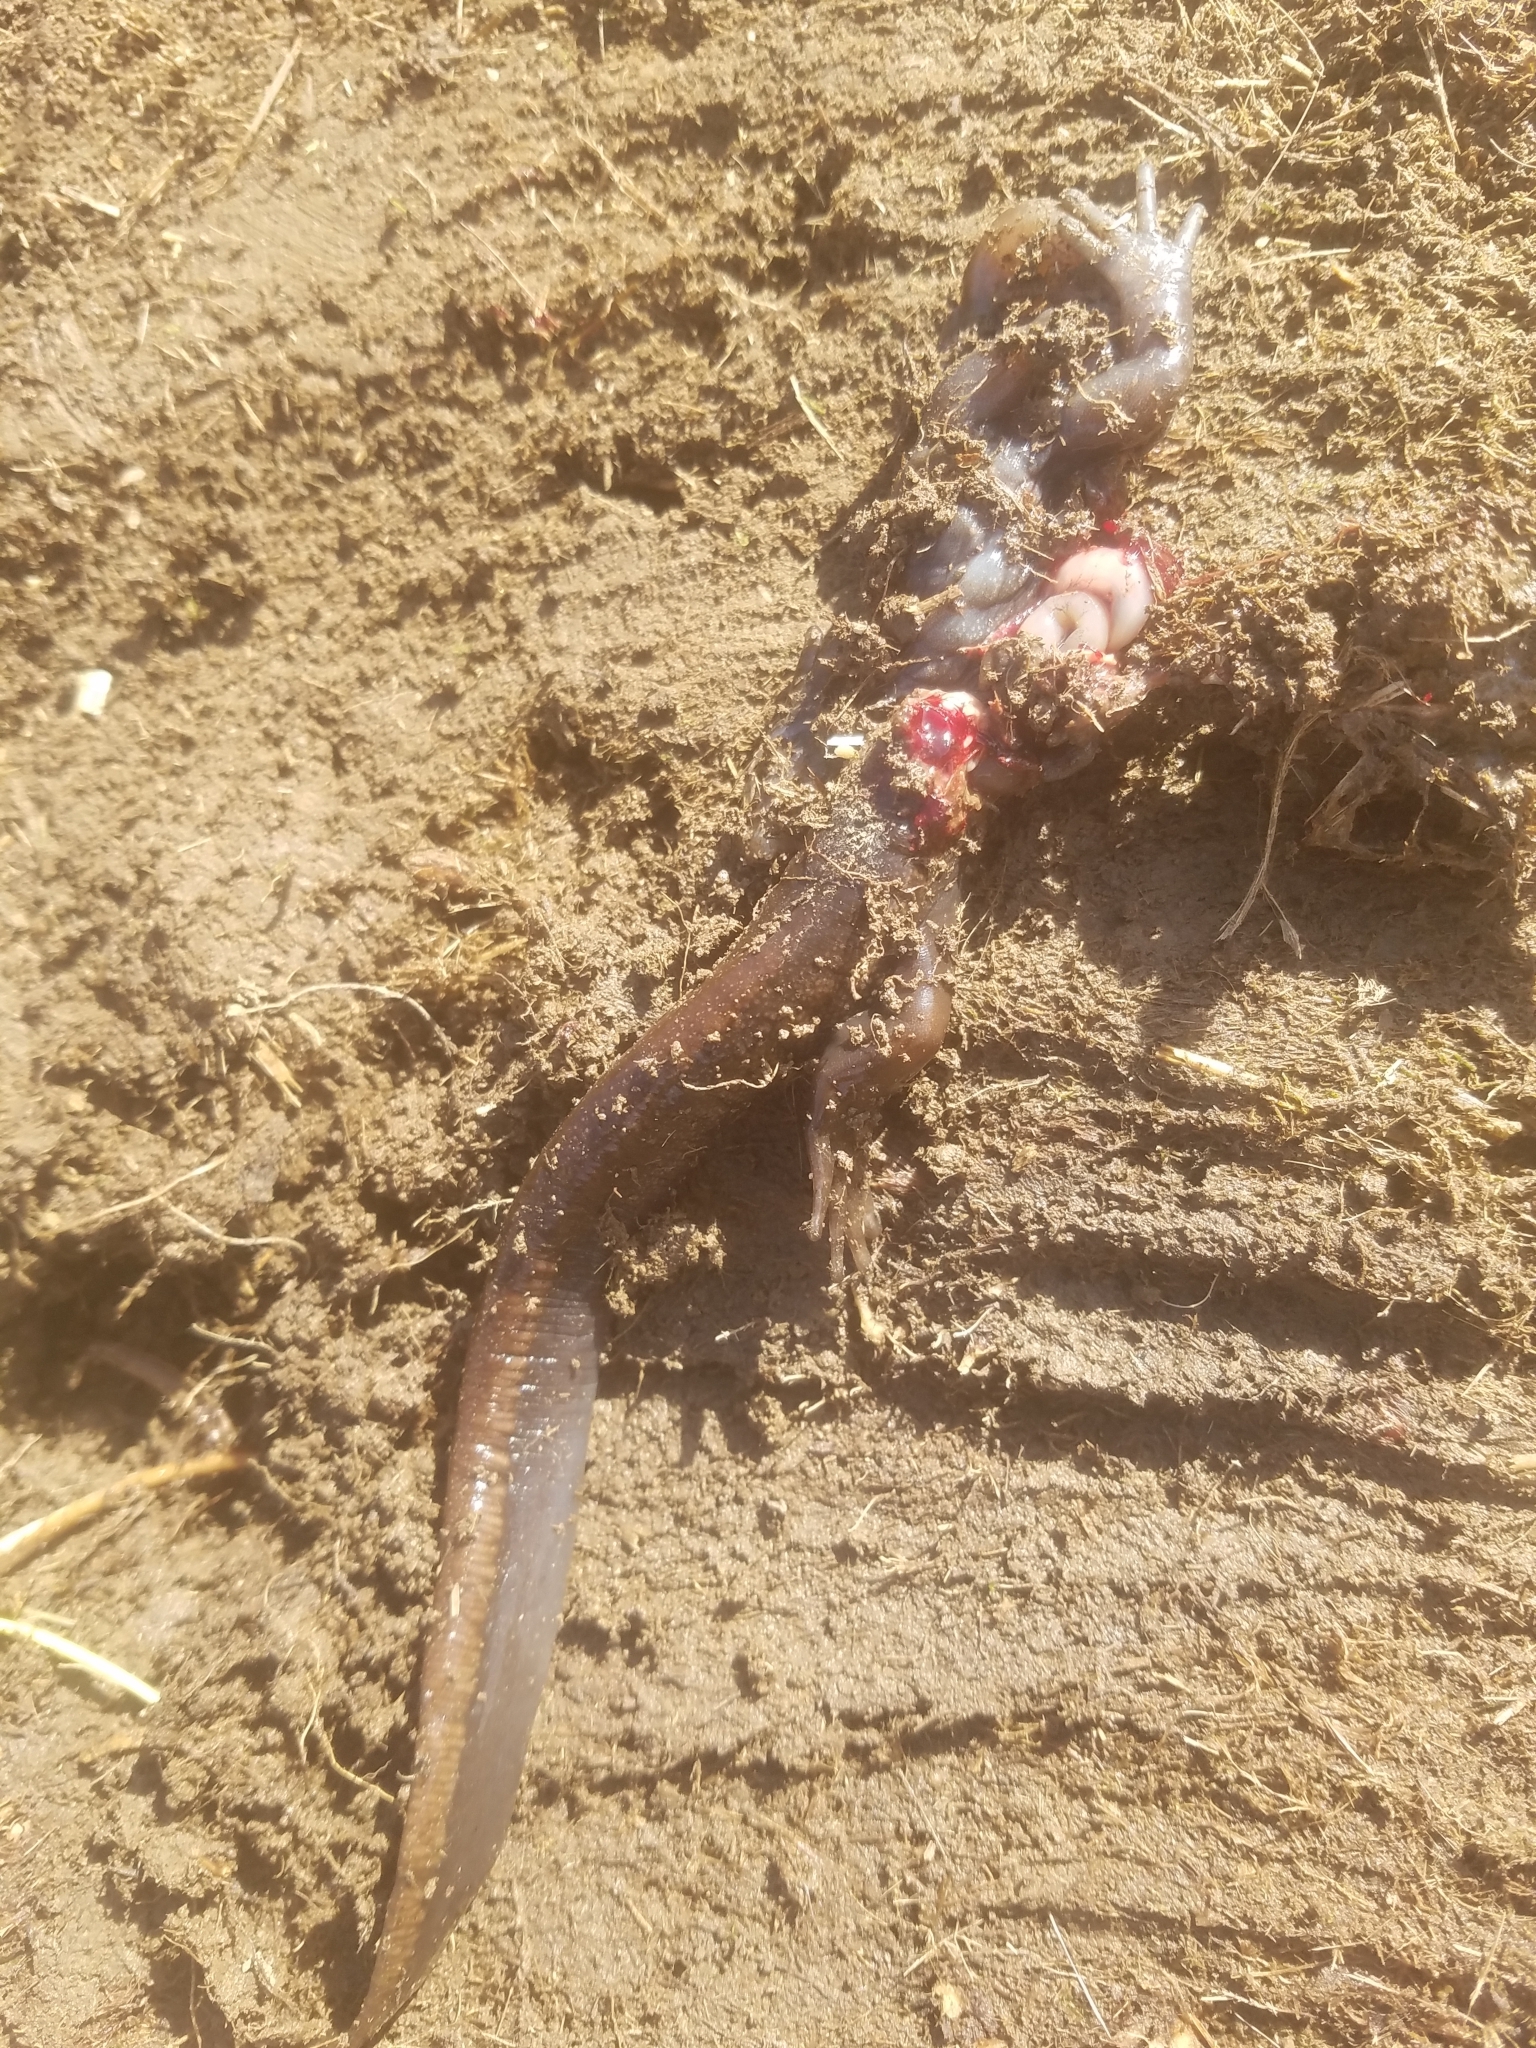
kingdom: Animalia
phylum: Chordata
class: Amphibia
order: Caudata
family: Ambystomatidae
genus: Ambystoma
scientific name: Ambystoma gracile
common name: Northwestern salamander
